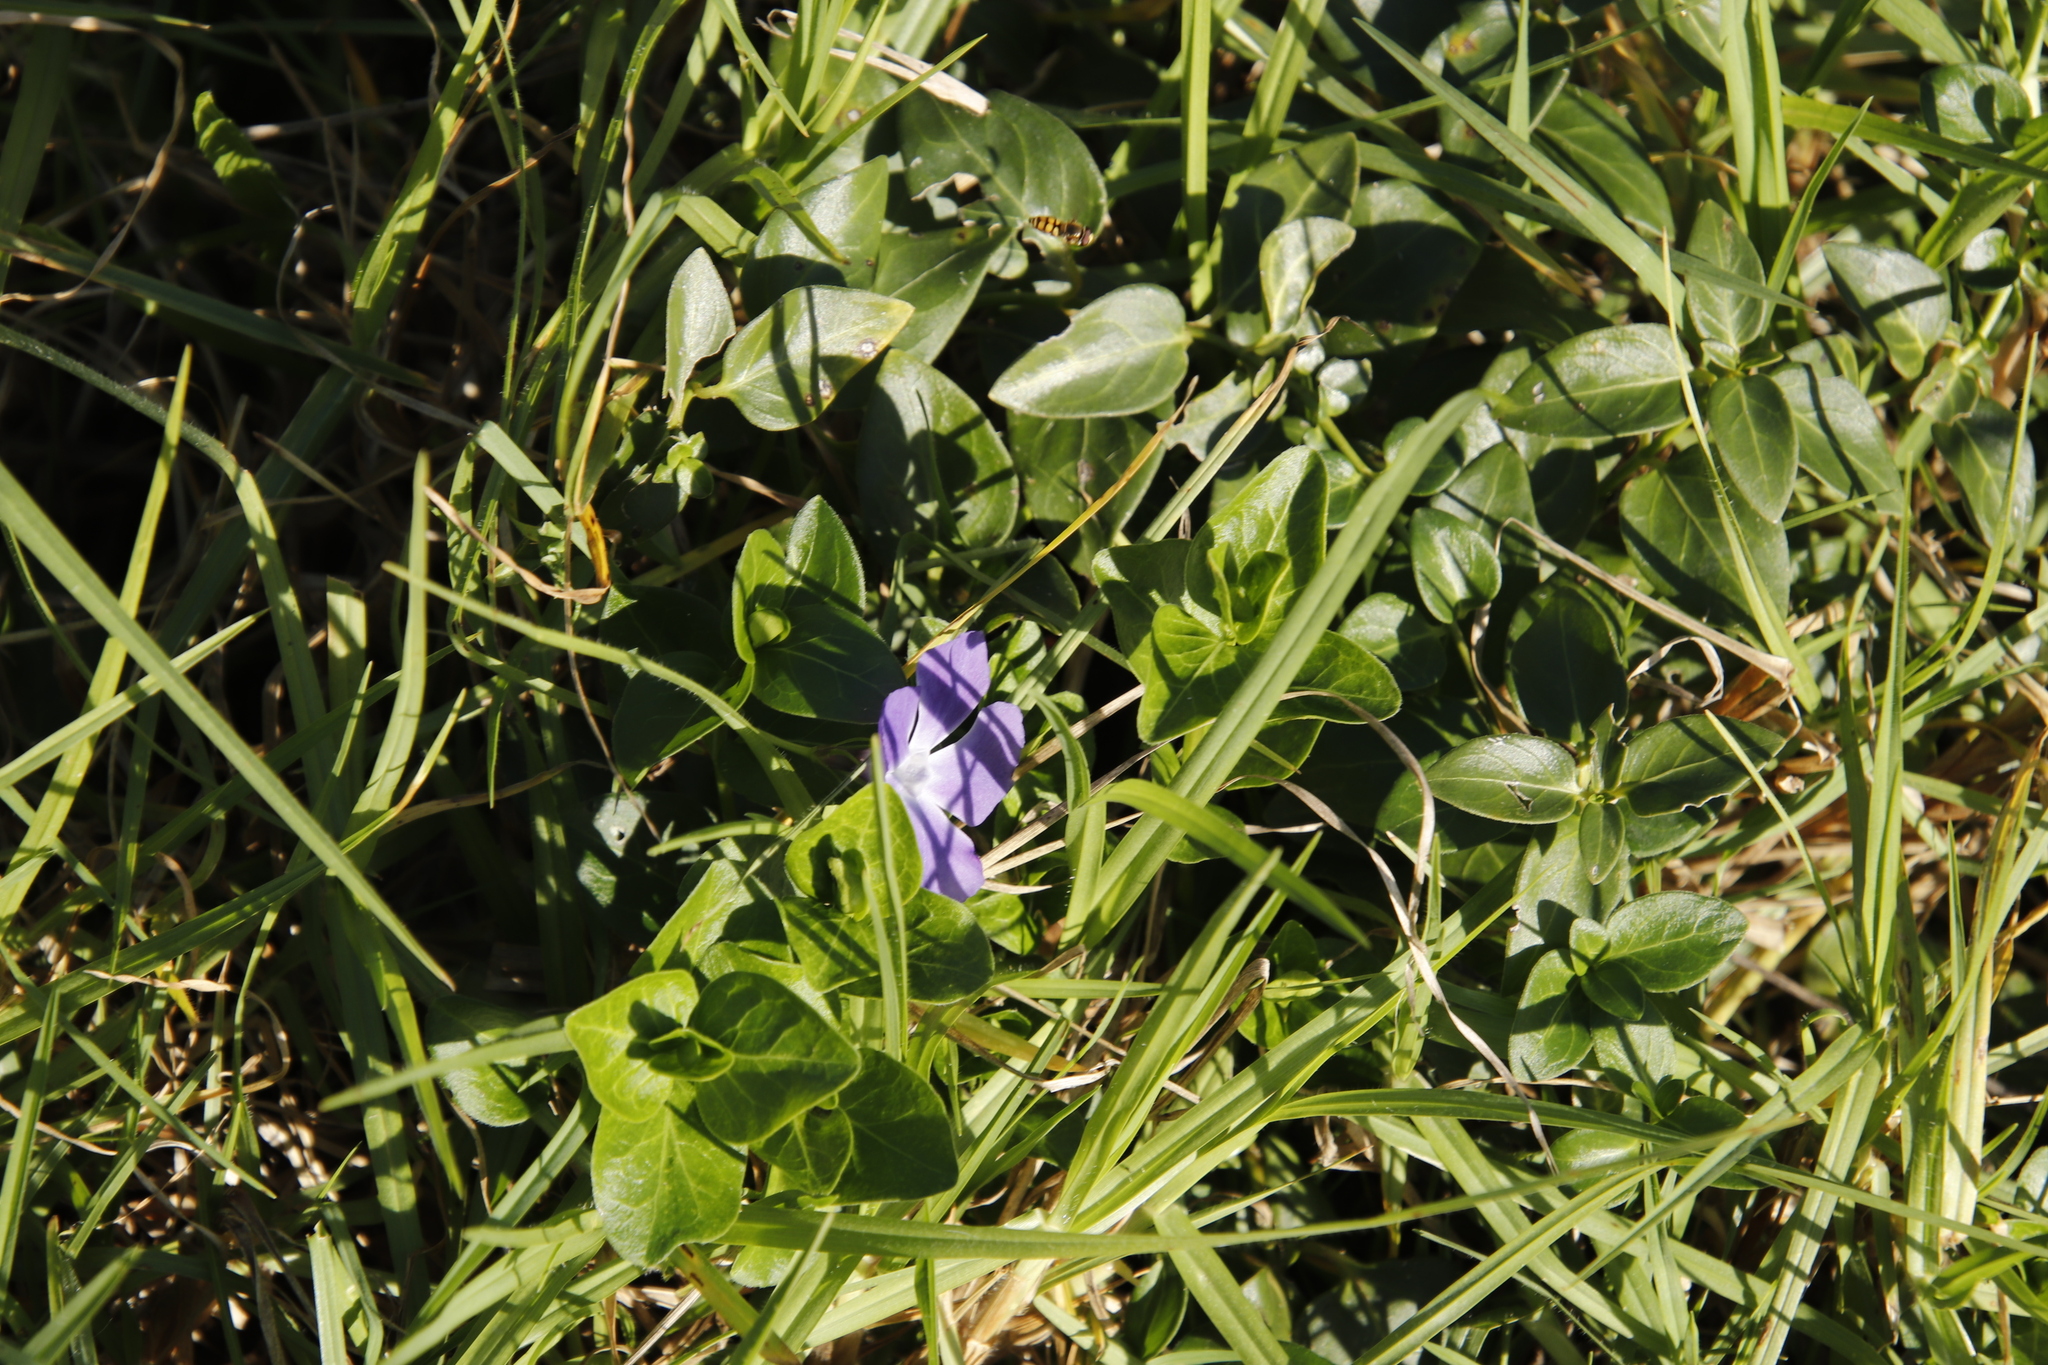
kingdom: Plantae
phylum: Tracheophyta
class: Magnoliopsida
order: Gentianales
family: Apocynaceae
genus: Vinca
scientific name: Vinca major
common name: Greater periwinkle
